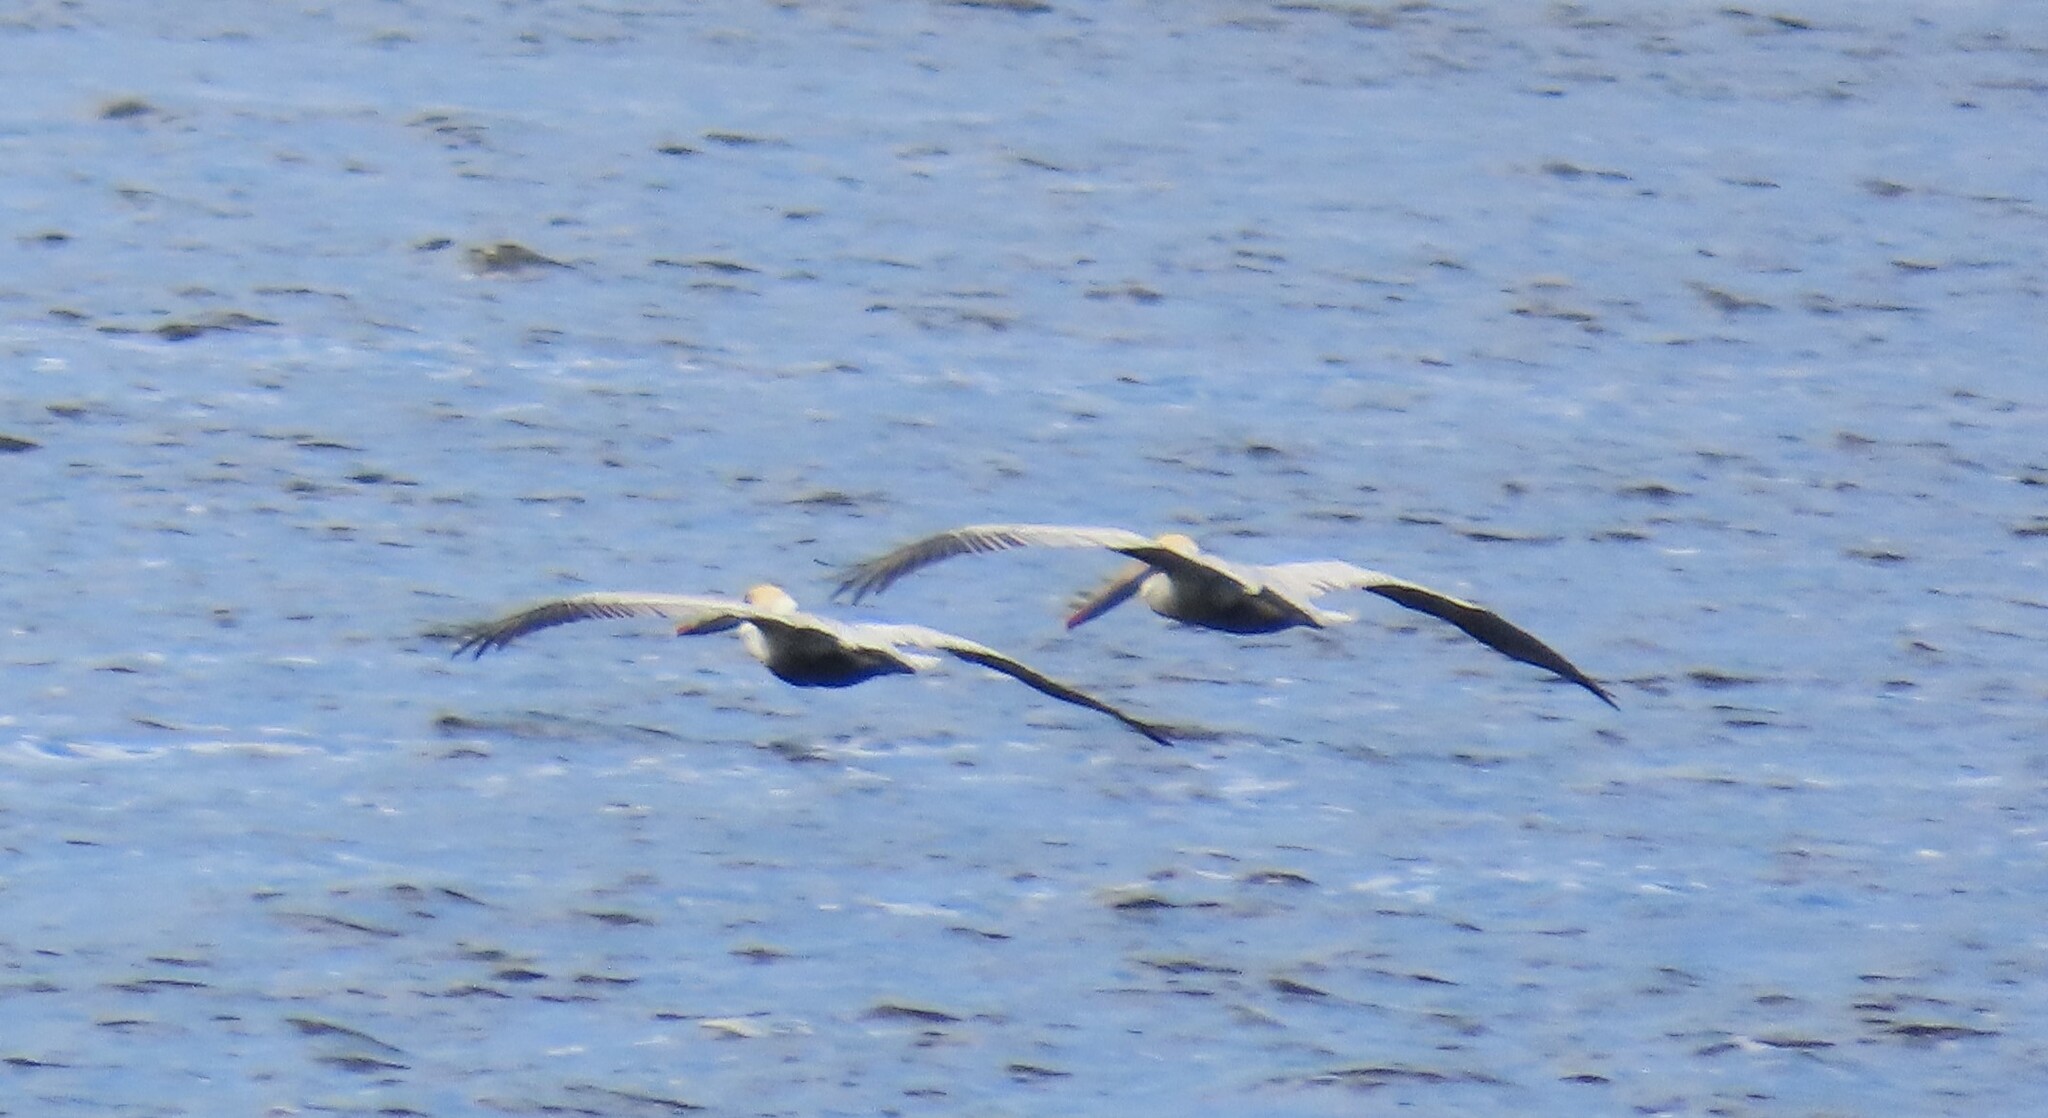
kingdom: Animalia
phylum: Chordata
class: Aves
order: Pelecaniformes
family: Pelecanidae
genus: Pelecanus
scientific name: Pelecanus occidentalis
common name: Brown pelican
